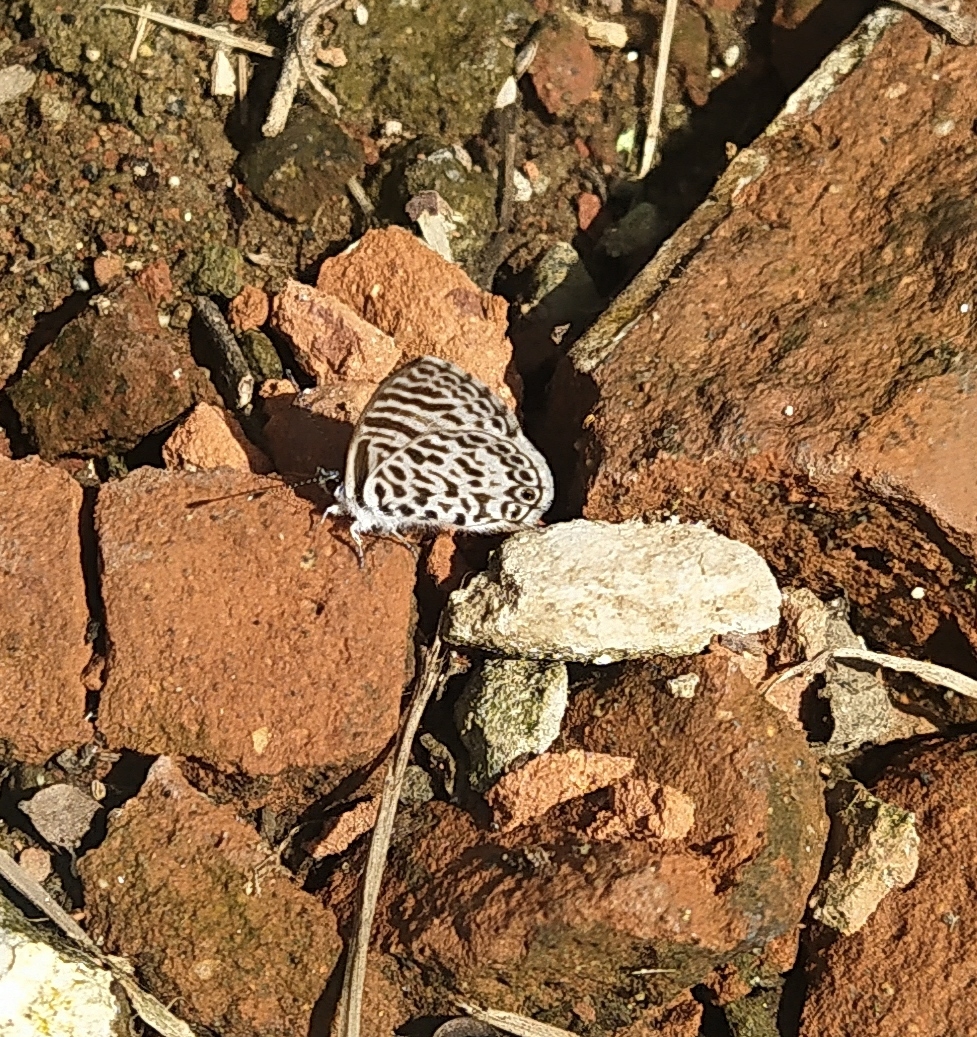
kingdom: Animalia
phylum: Arthropoda
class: Insecta
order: Lepidoptera
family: Lycaenidae
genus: Leptotes
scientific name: Leptotes cassius
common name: Cassius blue
